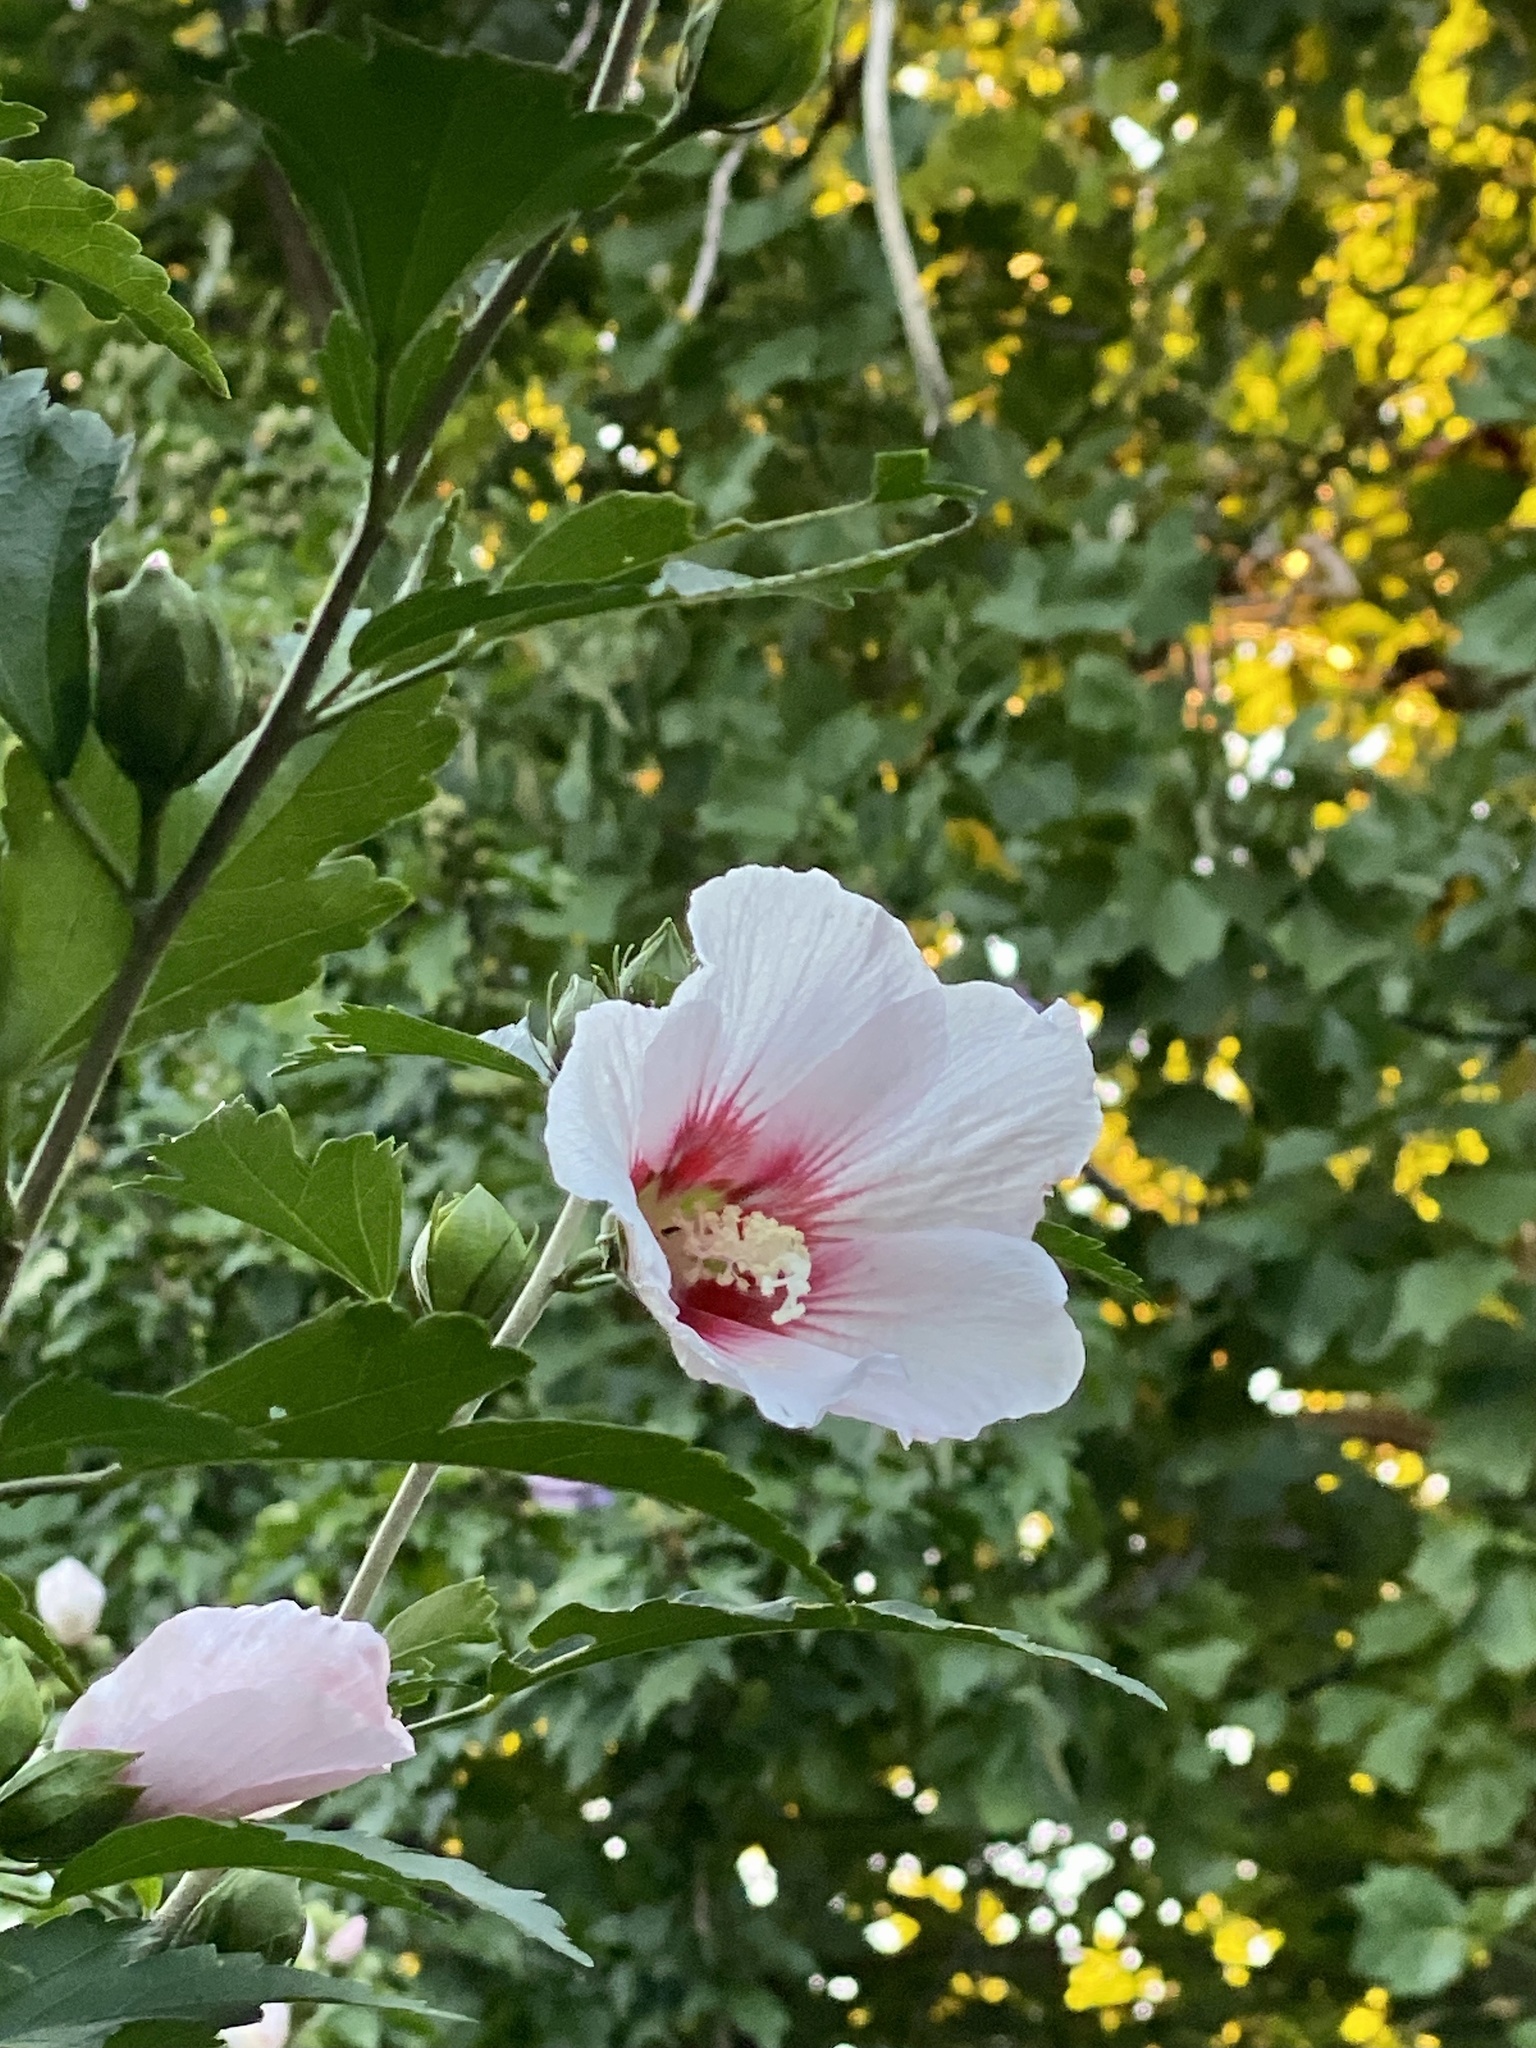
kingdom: Plantae
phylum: Tracheophyta
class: Magnoliopsida
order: Malvales
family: Malvaceae
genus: Hibiscus
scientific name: Hibiscus syriacus
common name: Syrian ketmia
